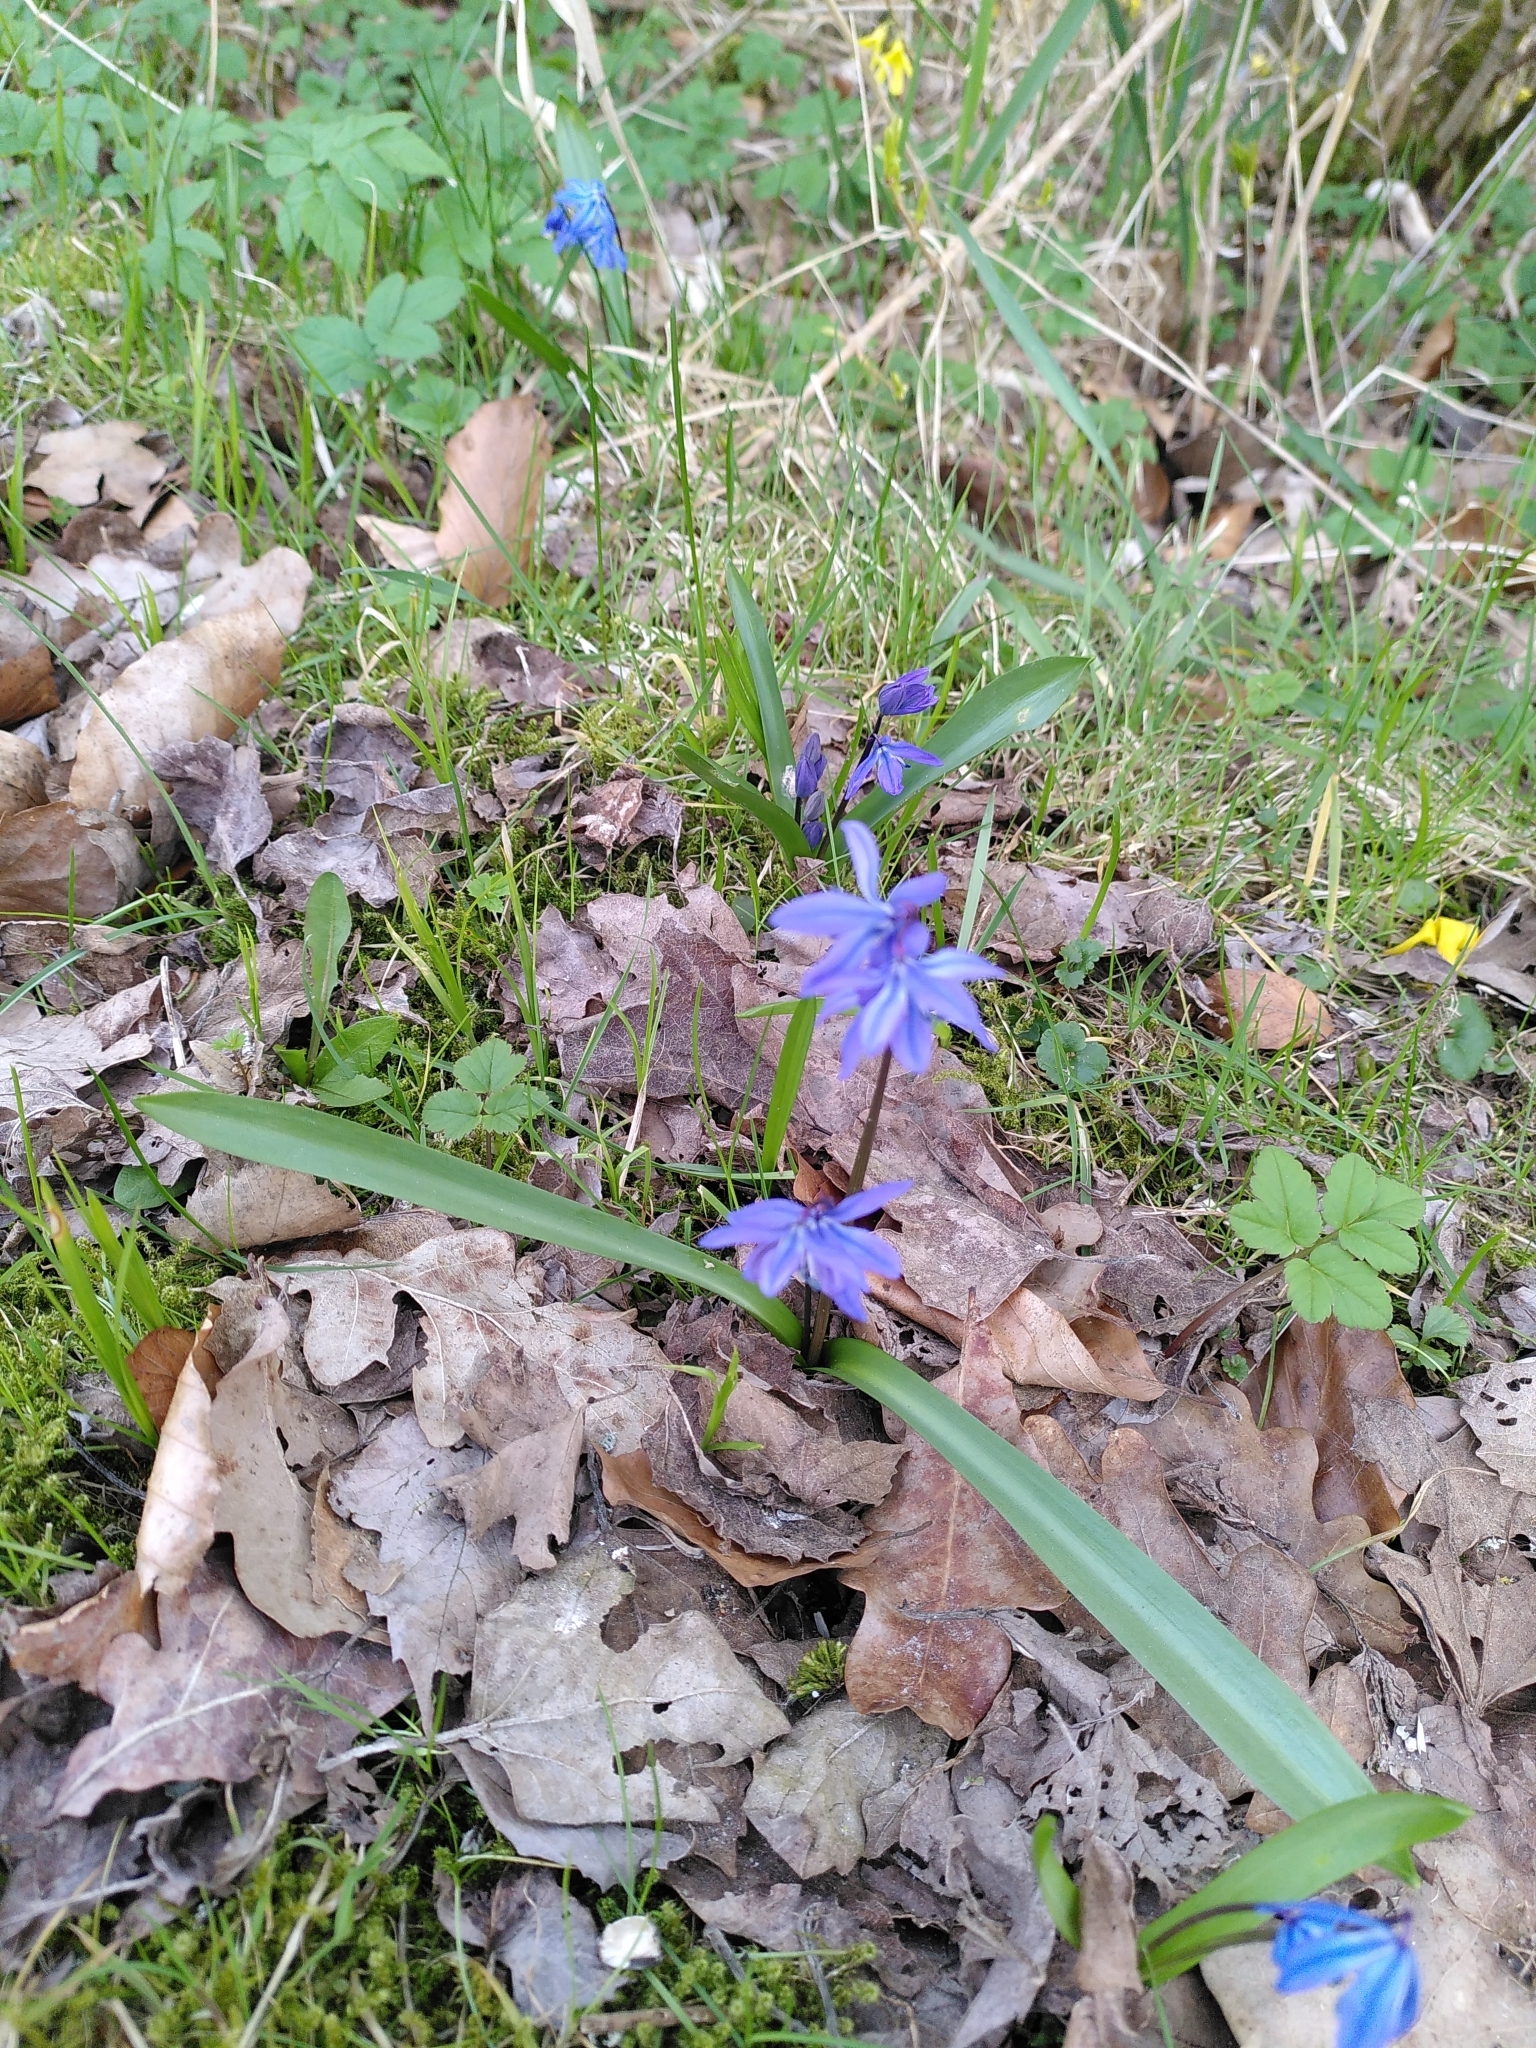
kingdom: Plantae
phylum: Tracheophyta
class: Liliopsida
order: Asparagales
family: Asparagaceae
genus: Scilla
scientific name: Scilla siberica
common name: Siberian squill
